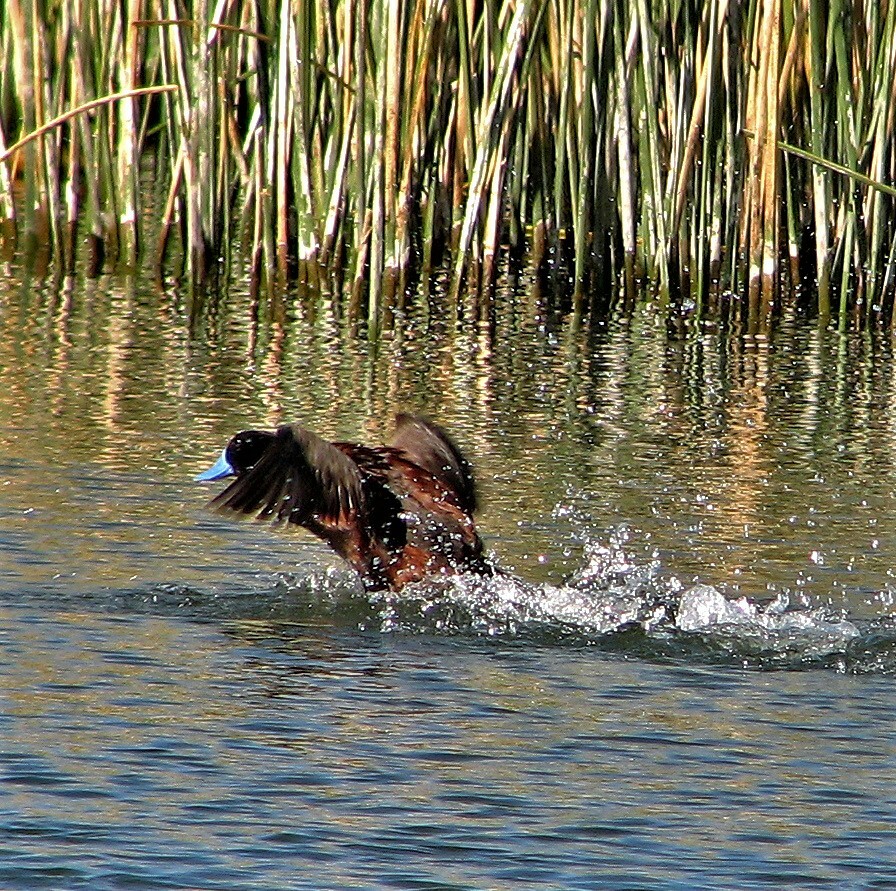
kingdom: Animalia
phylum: Chordata
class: Aves
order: Anseriformes
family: Anatidae
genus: Oxyura
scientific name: Oxyura vittata
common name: Lake duck
